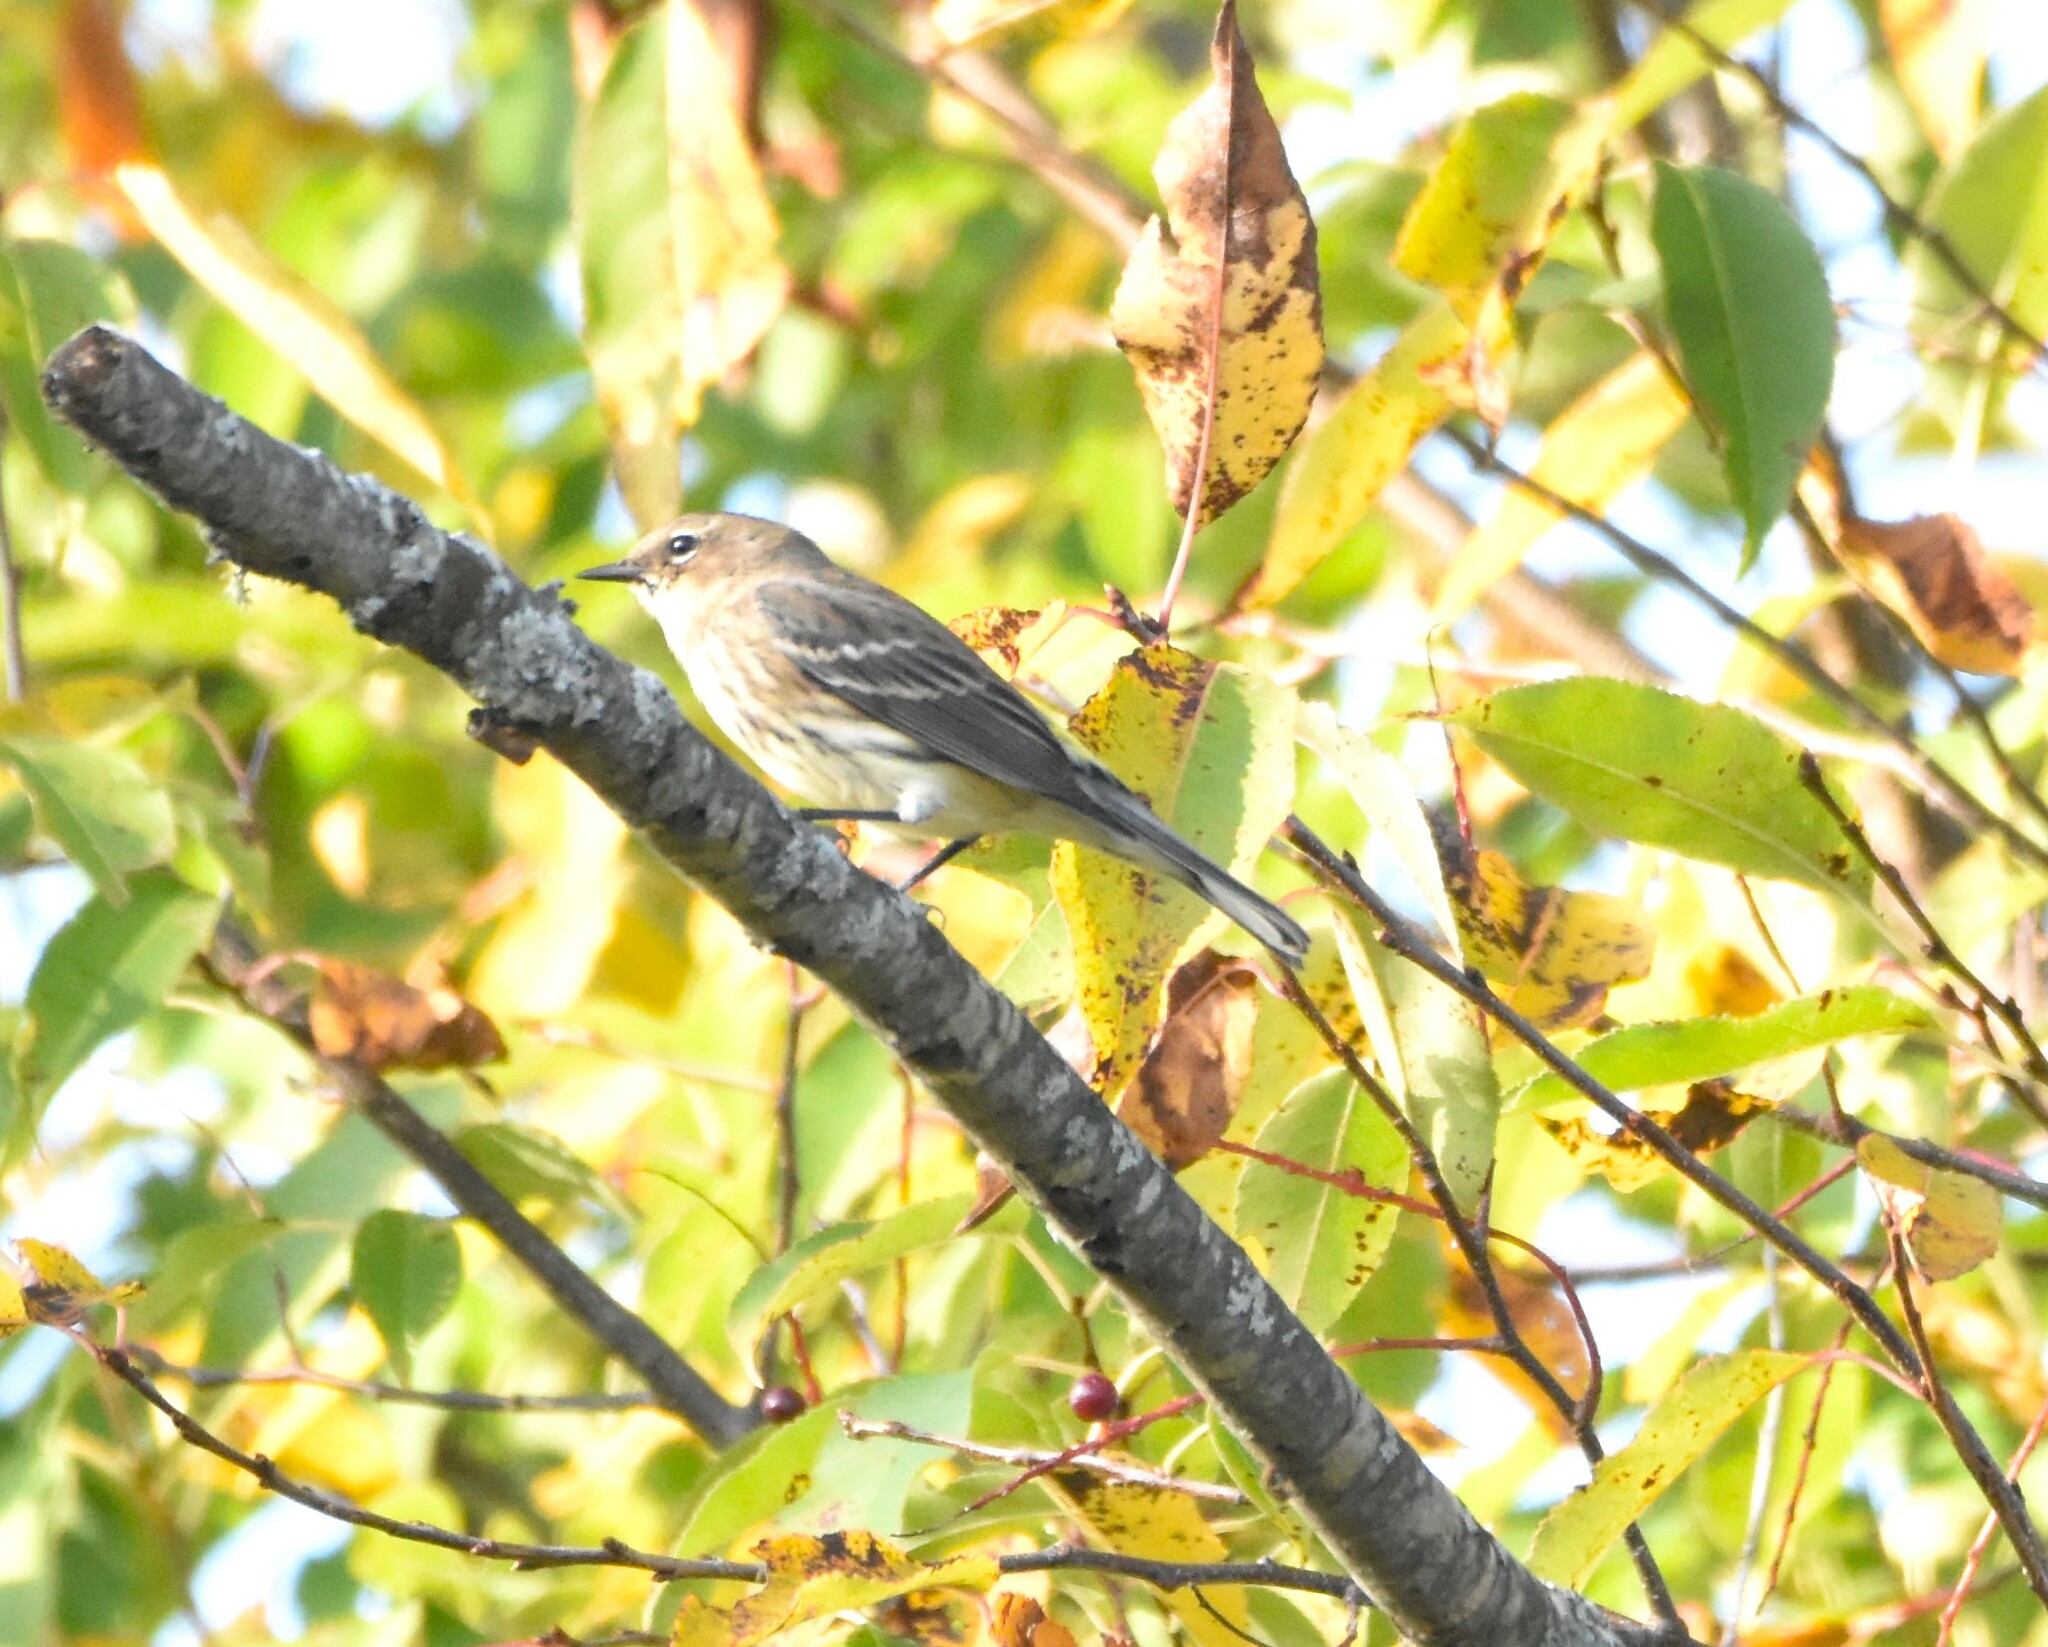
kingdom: Animalia
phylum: Chordata
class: Aves
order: Passeriformes
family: Parulidae
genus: Setophaga
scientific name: Setophaga coronata
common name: Myrtle warbler
